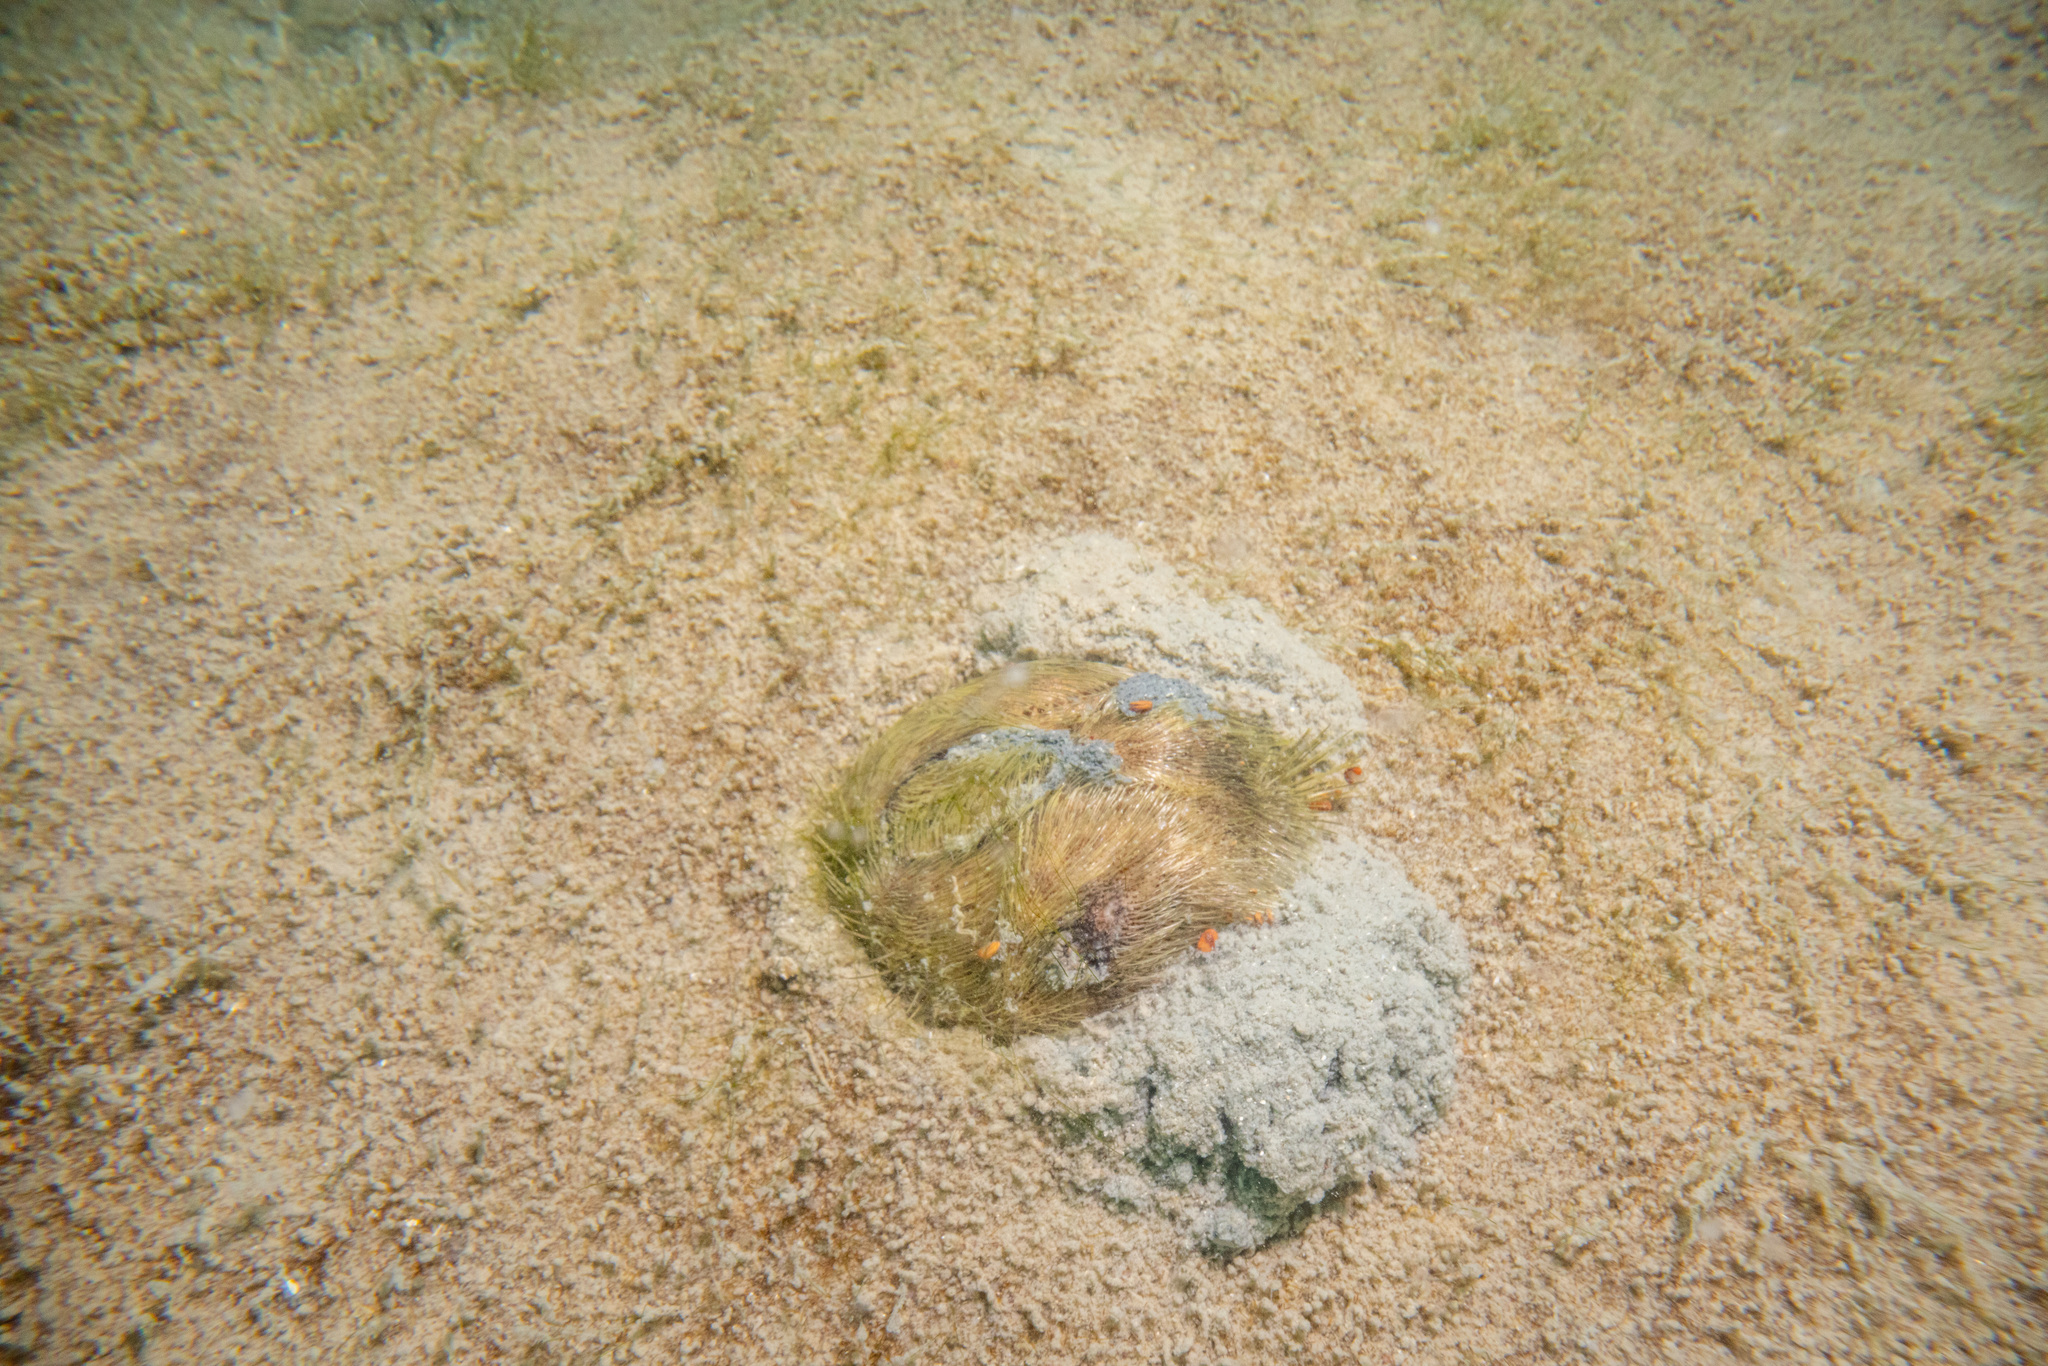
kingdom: Animalia
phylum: Echinodermata
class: Echinoidea
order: Spatangoida
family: Loveniidae
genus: Echinocardium
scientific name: Echinocardium cordatum
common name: Heart-urchin
